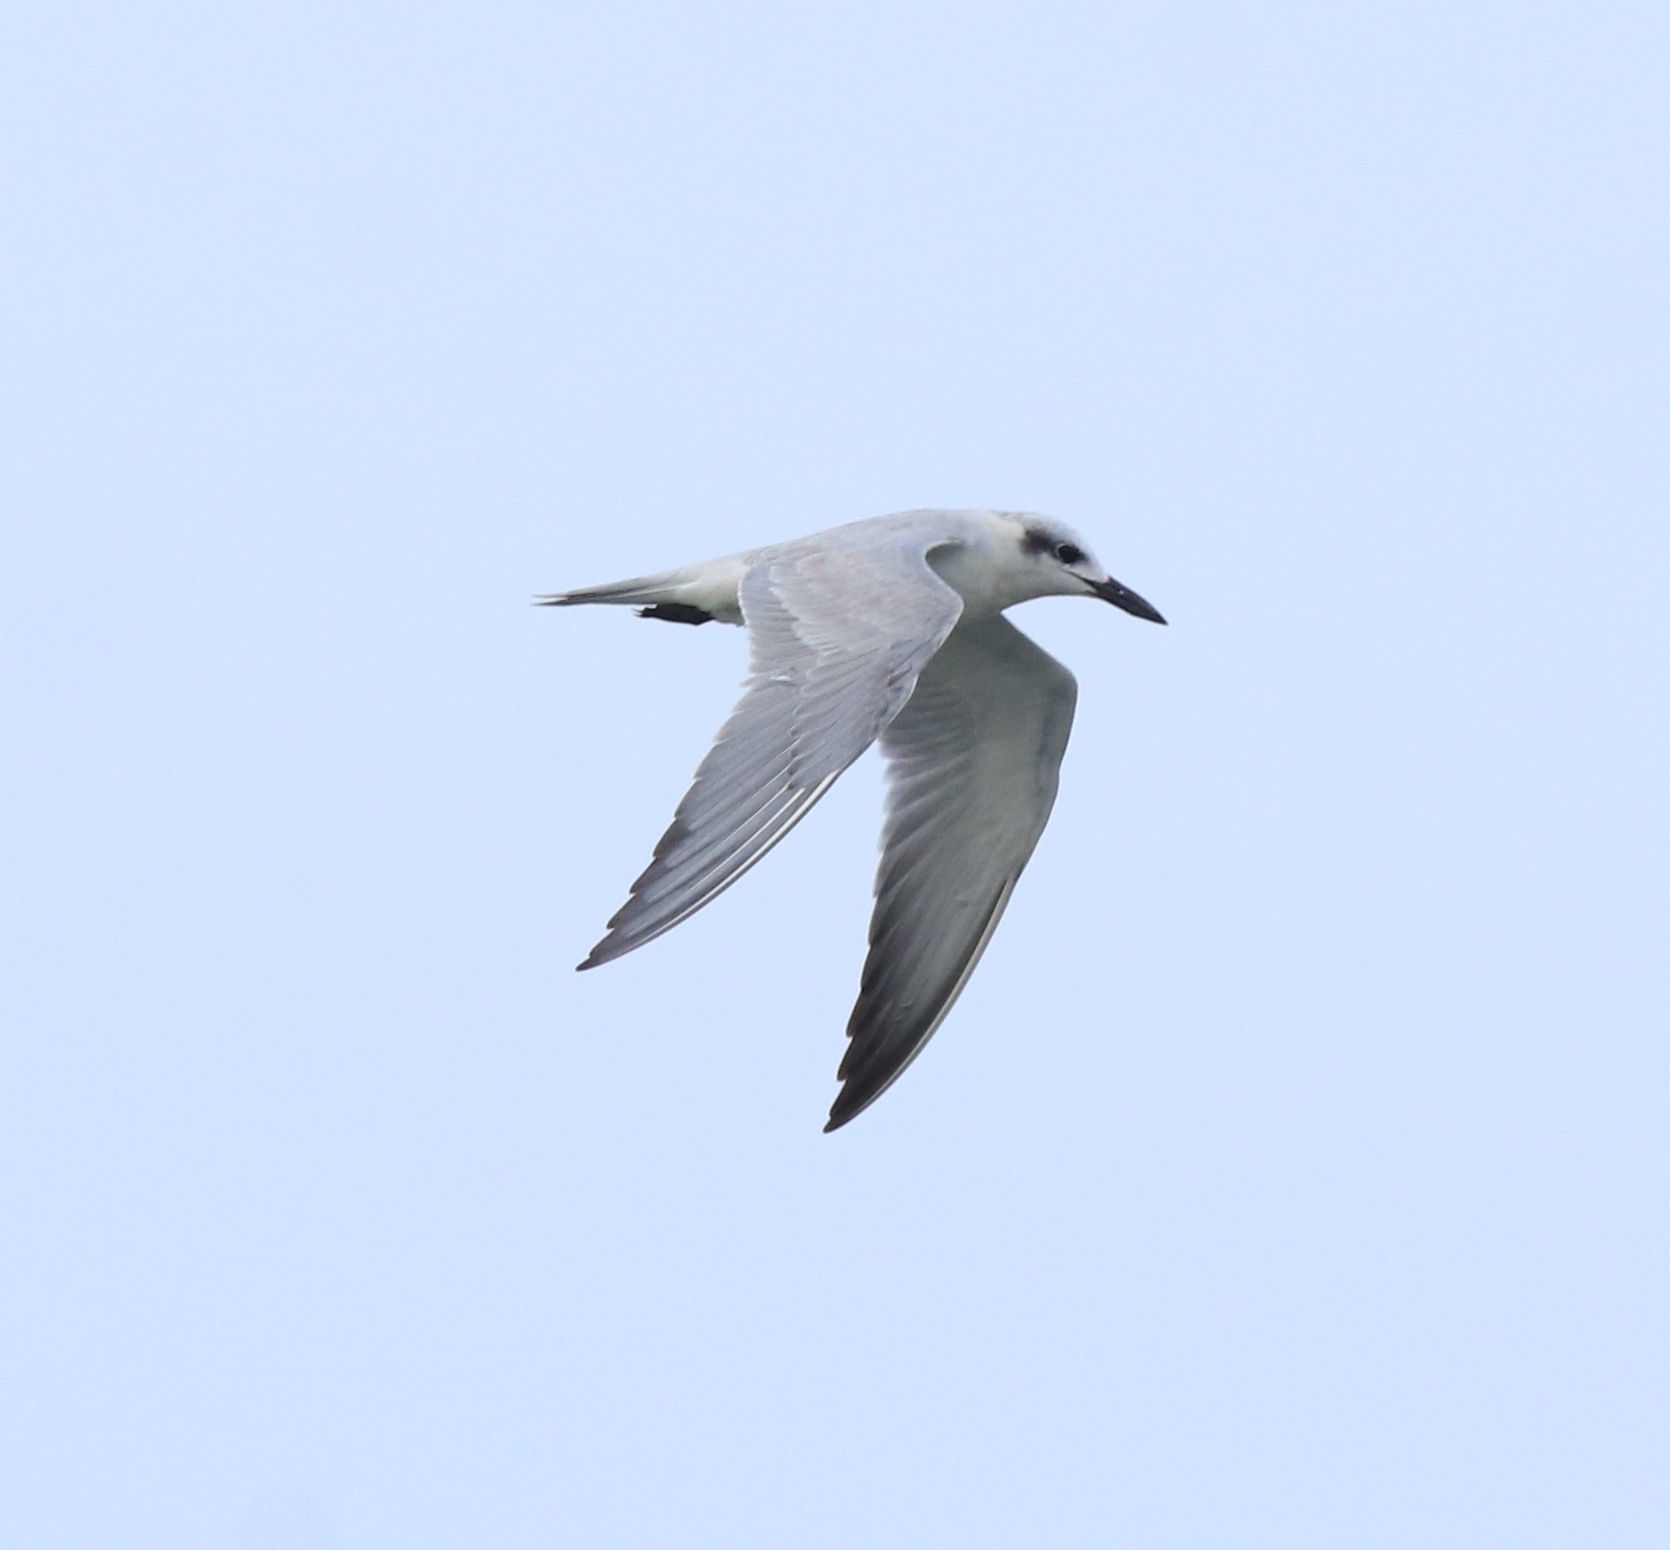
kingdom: Animalia
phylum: Chordata
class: Aves
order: Charadriiformes
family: Laridae
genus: Gelochelidon
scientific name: Gelochelidon nilotica
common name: Gull-billed tern
